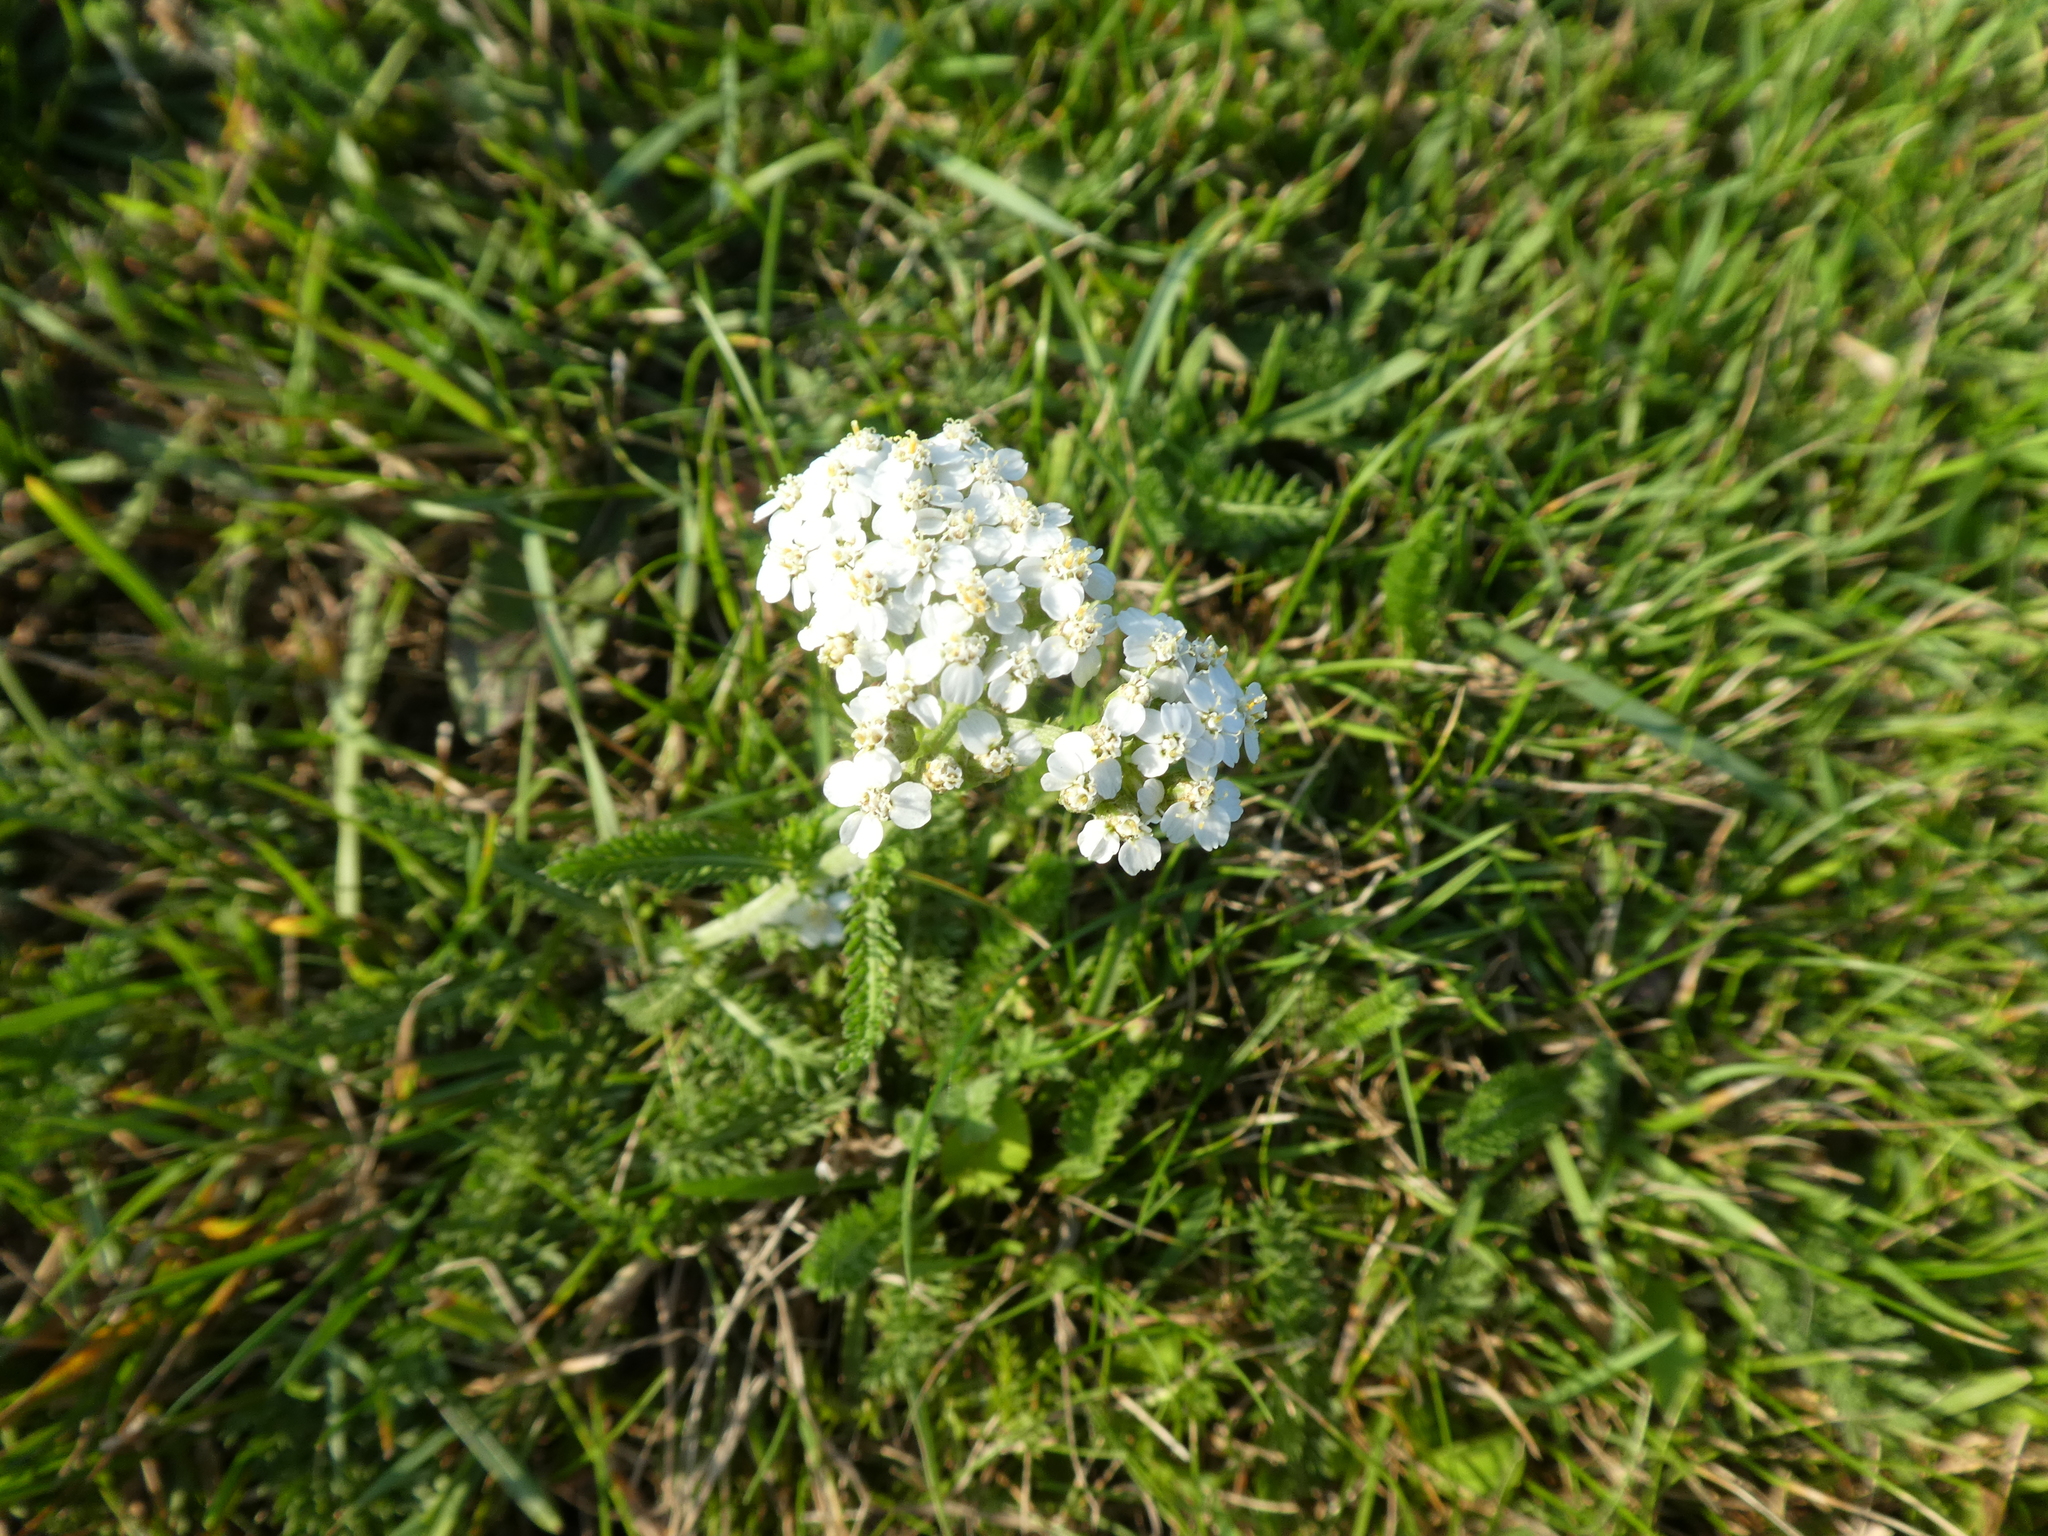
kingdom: Plantae
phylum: Tracheophyta
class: Magnoliopsida
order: Asterales
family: Asteraceae
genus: Achillea
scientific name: Achillea millefolium
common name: Yarrow
